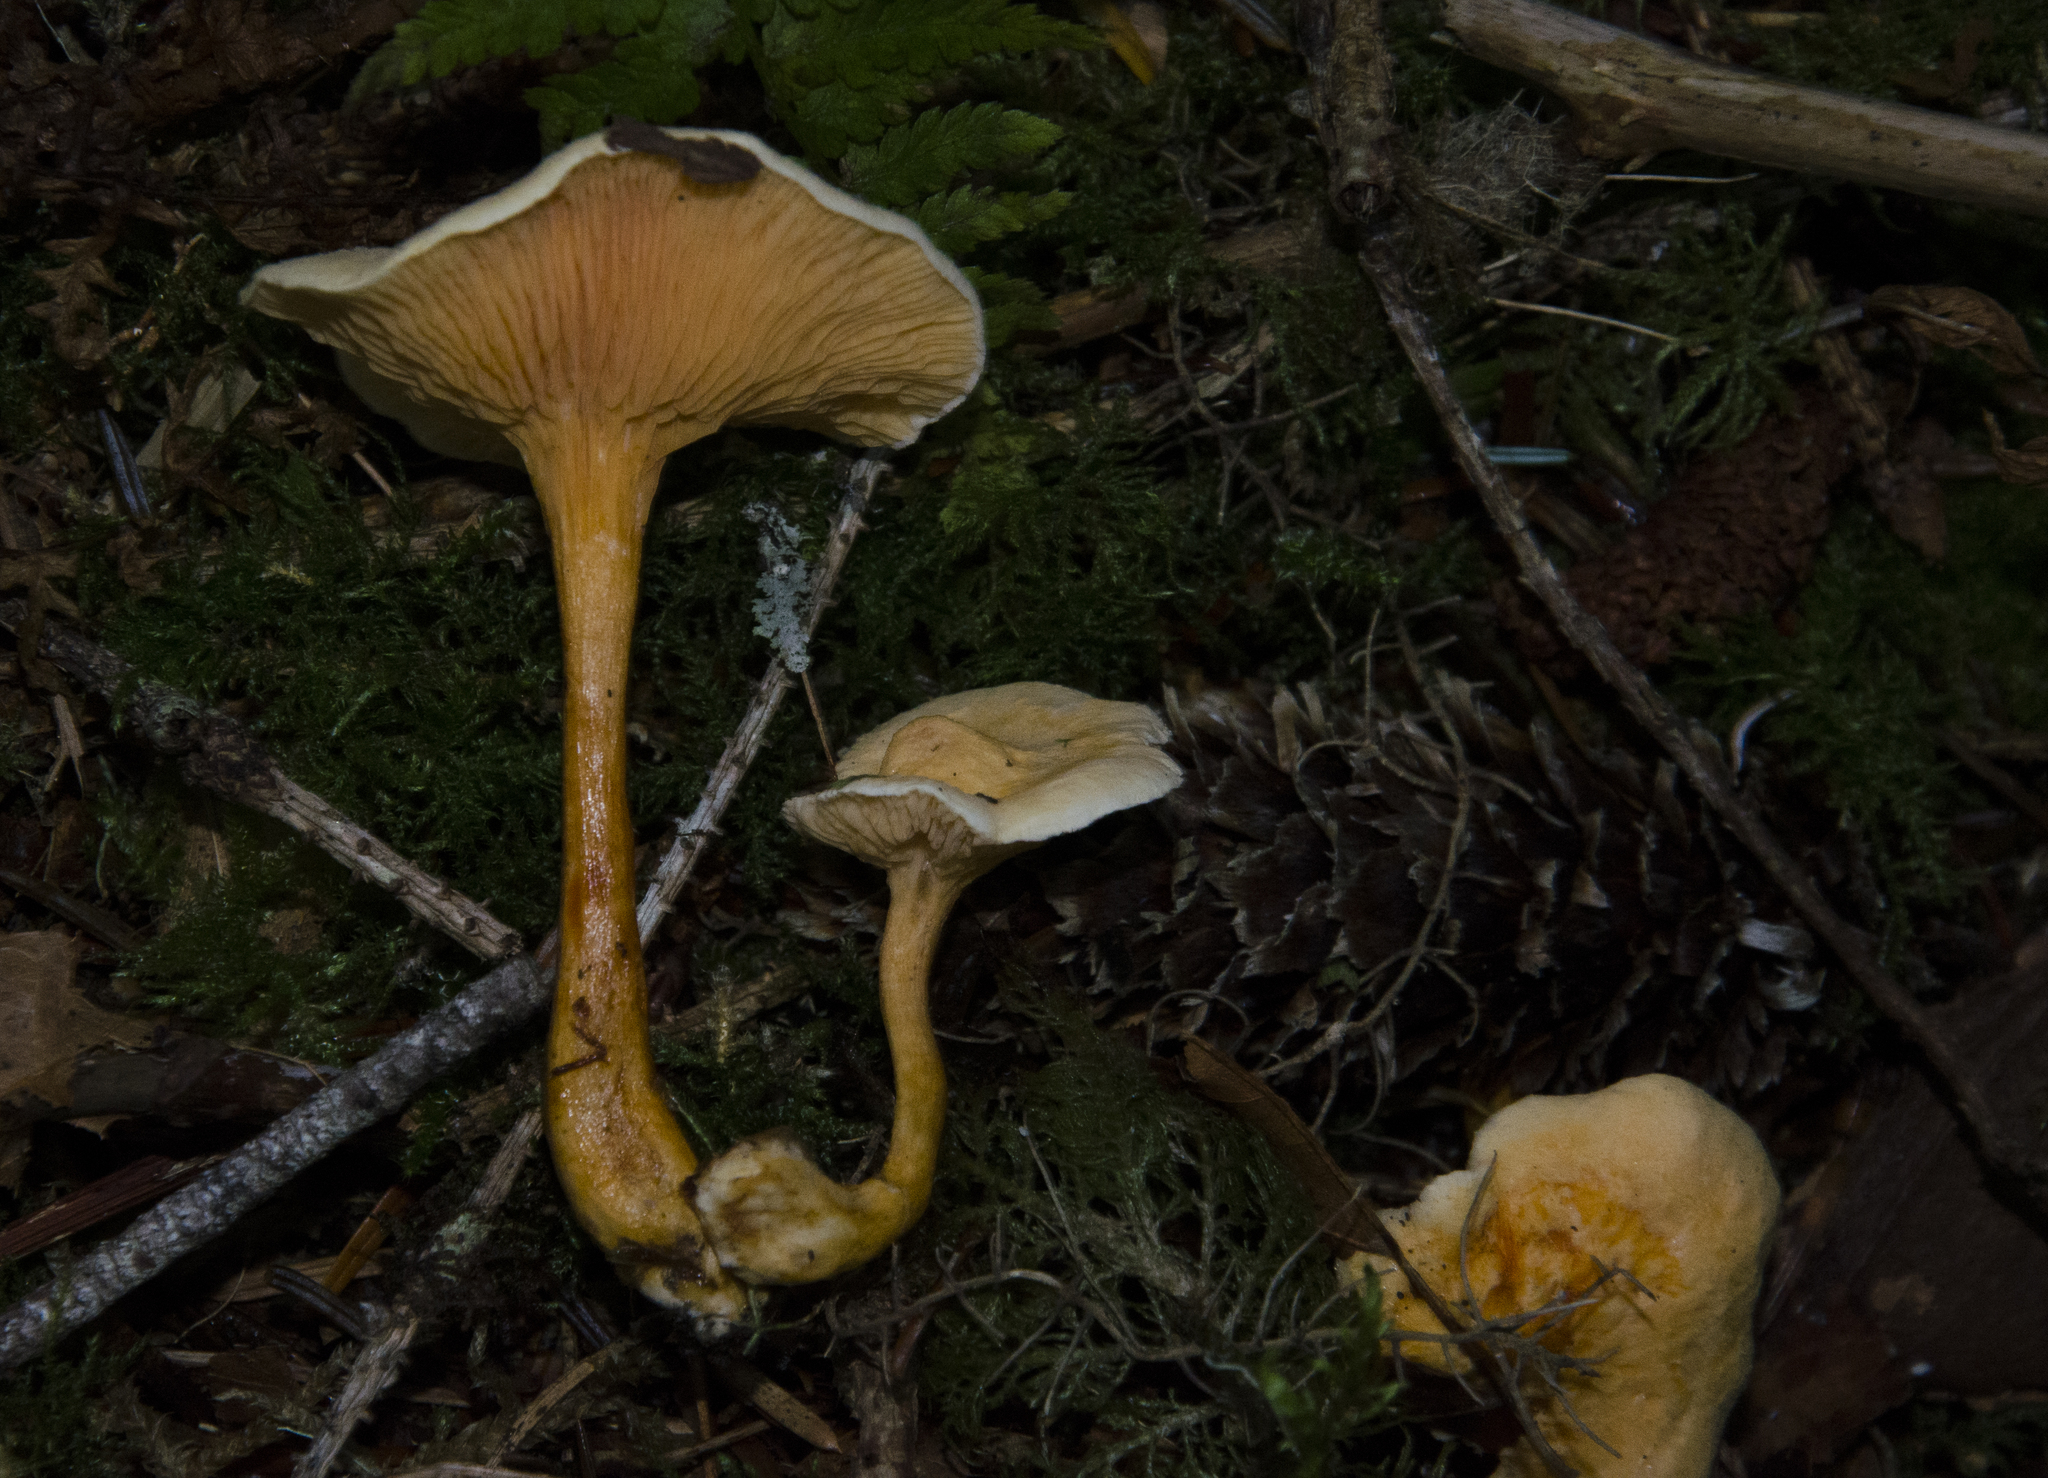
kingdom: Fungi
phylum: Basidiomycota
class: Agaricomycetes
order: Boletales
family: Hygrophoropsidaceae
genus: Hygrophoropsis
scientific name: Hygrophoropsis aurantiaca
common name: False chanterelle
